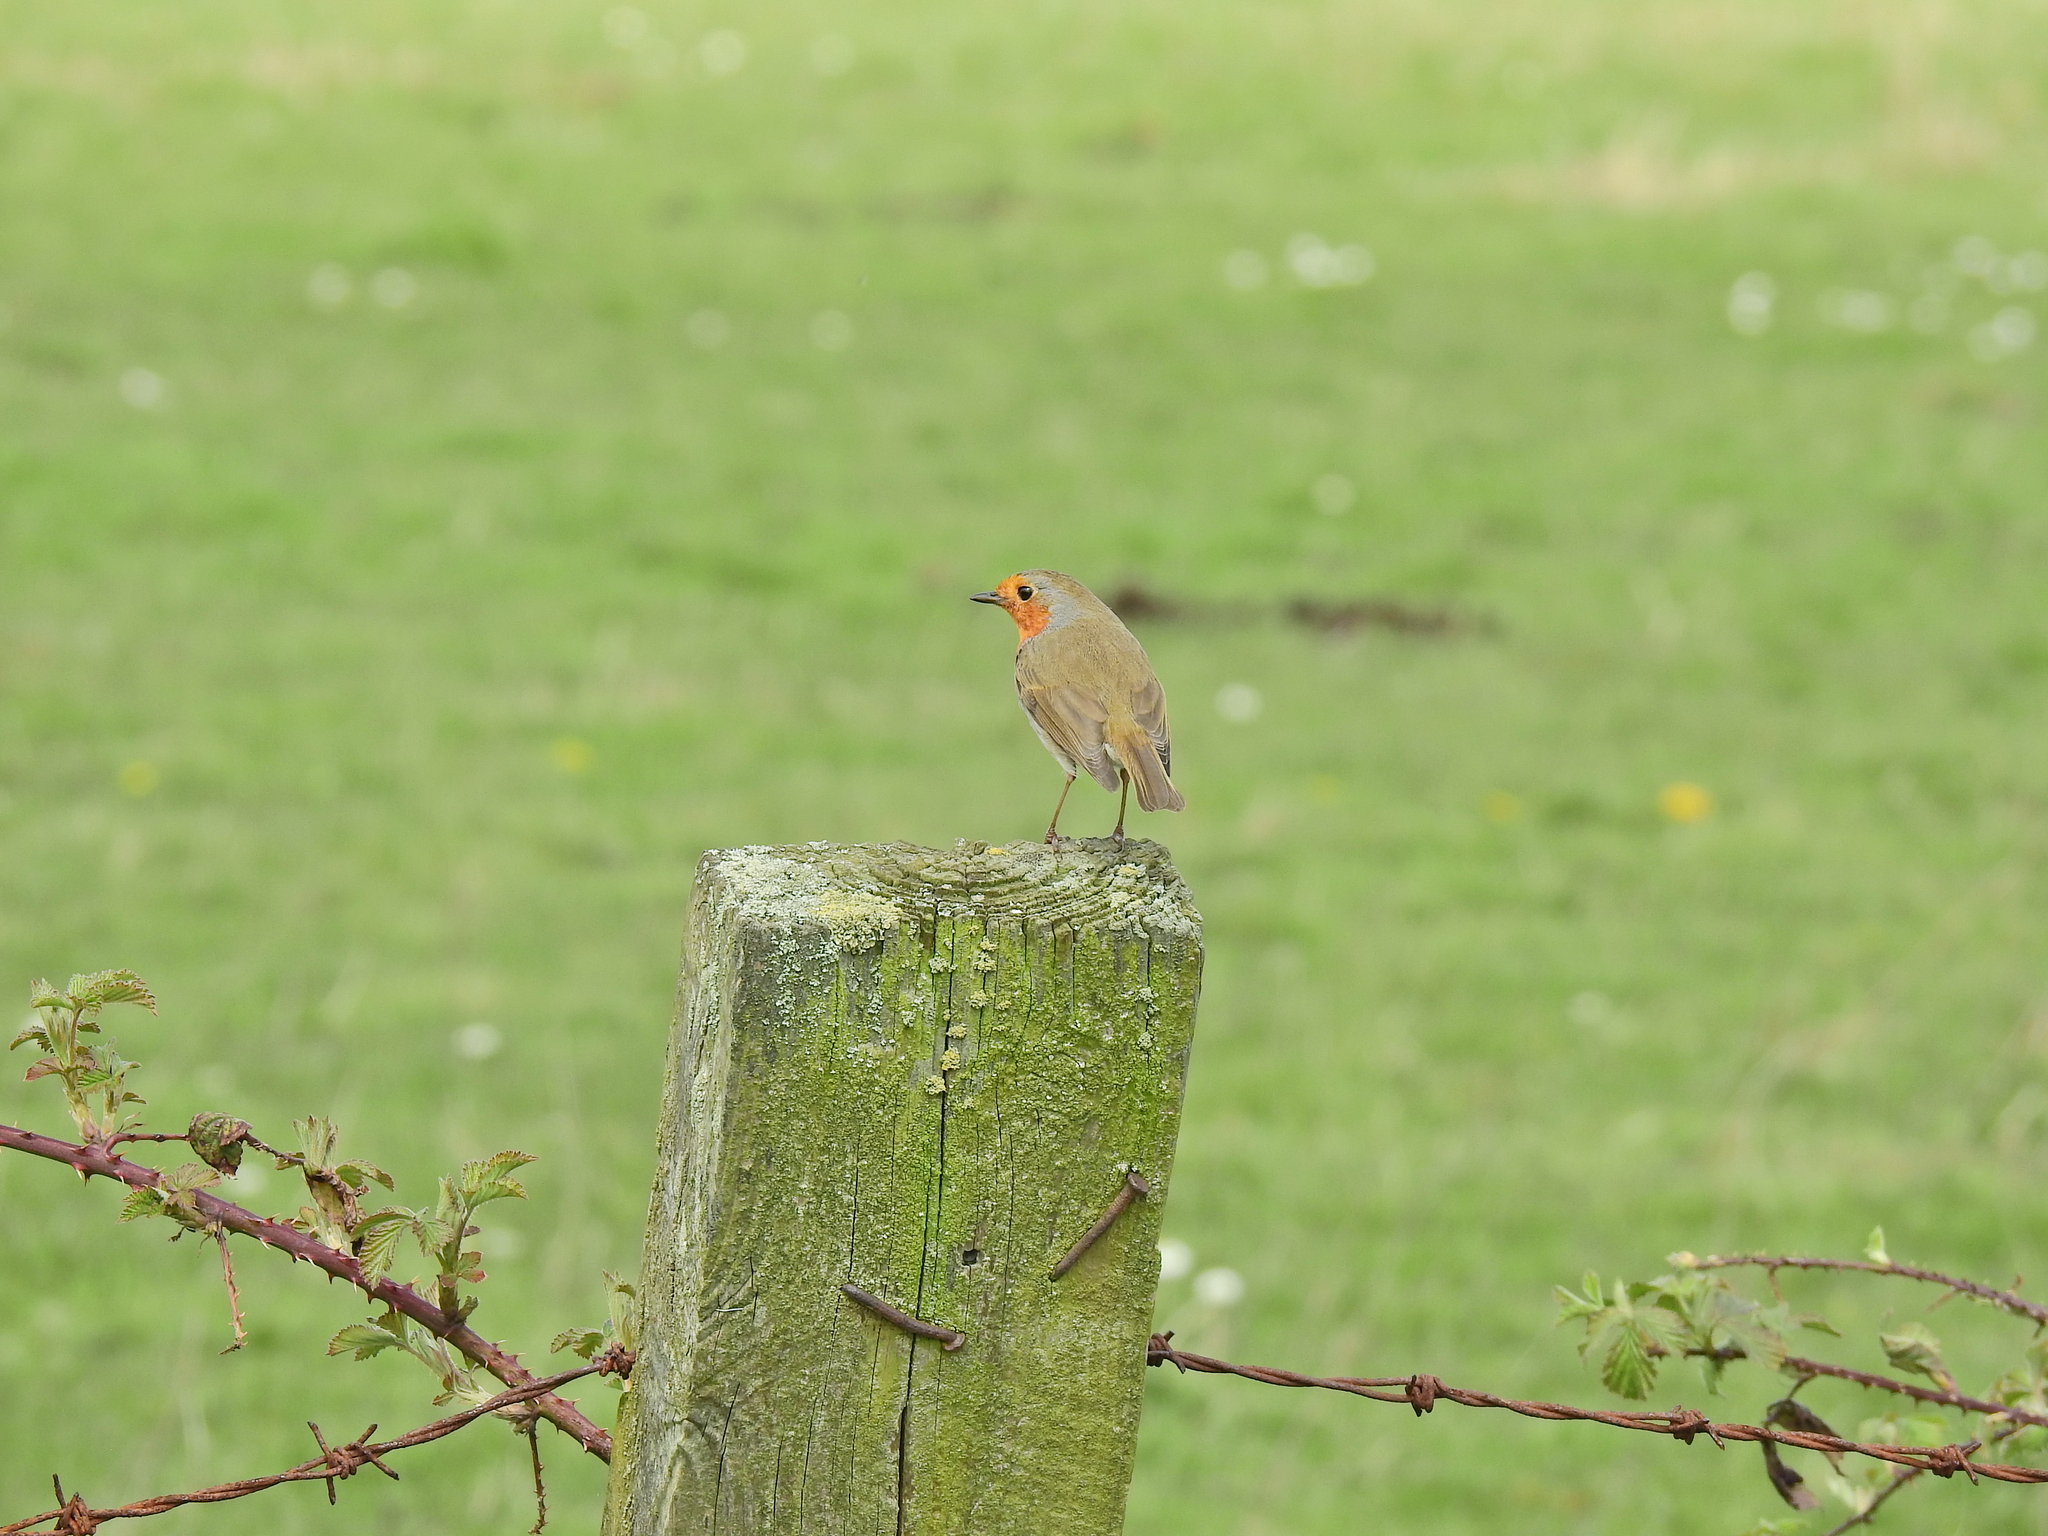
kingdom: Animalia
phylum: Chordata
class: Aves
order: Passeriformes
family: Muscicapidae
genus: Erithacus
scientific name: Erithacus rubecula
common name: European robin
